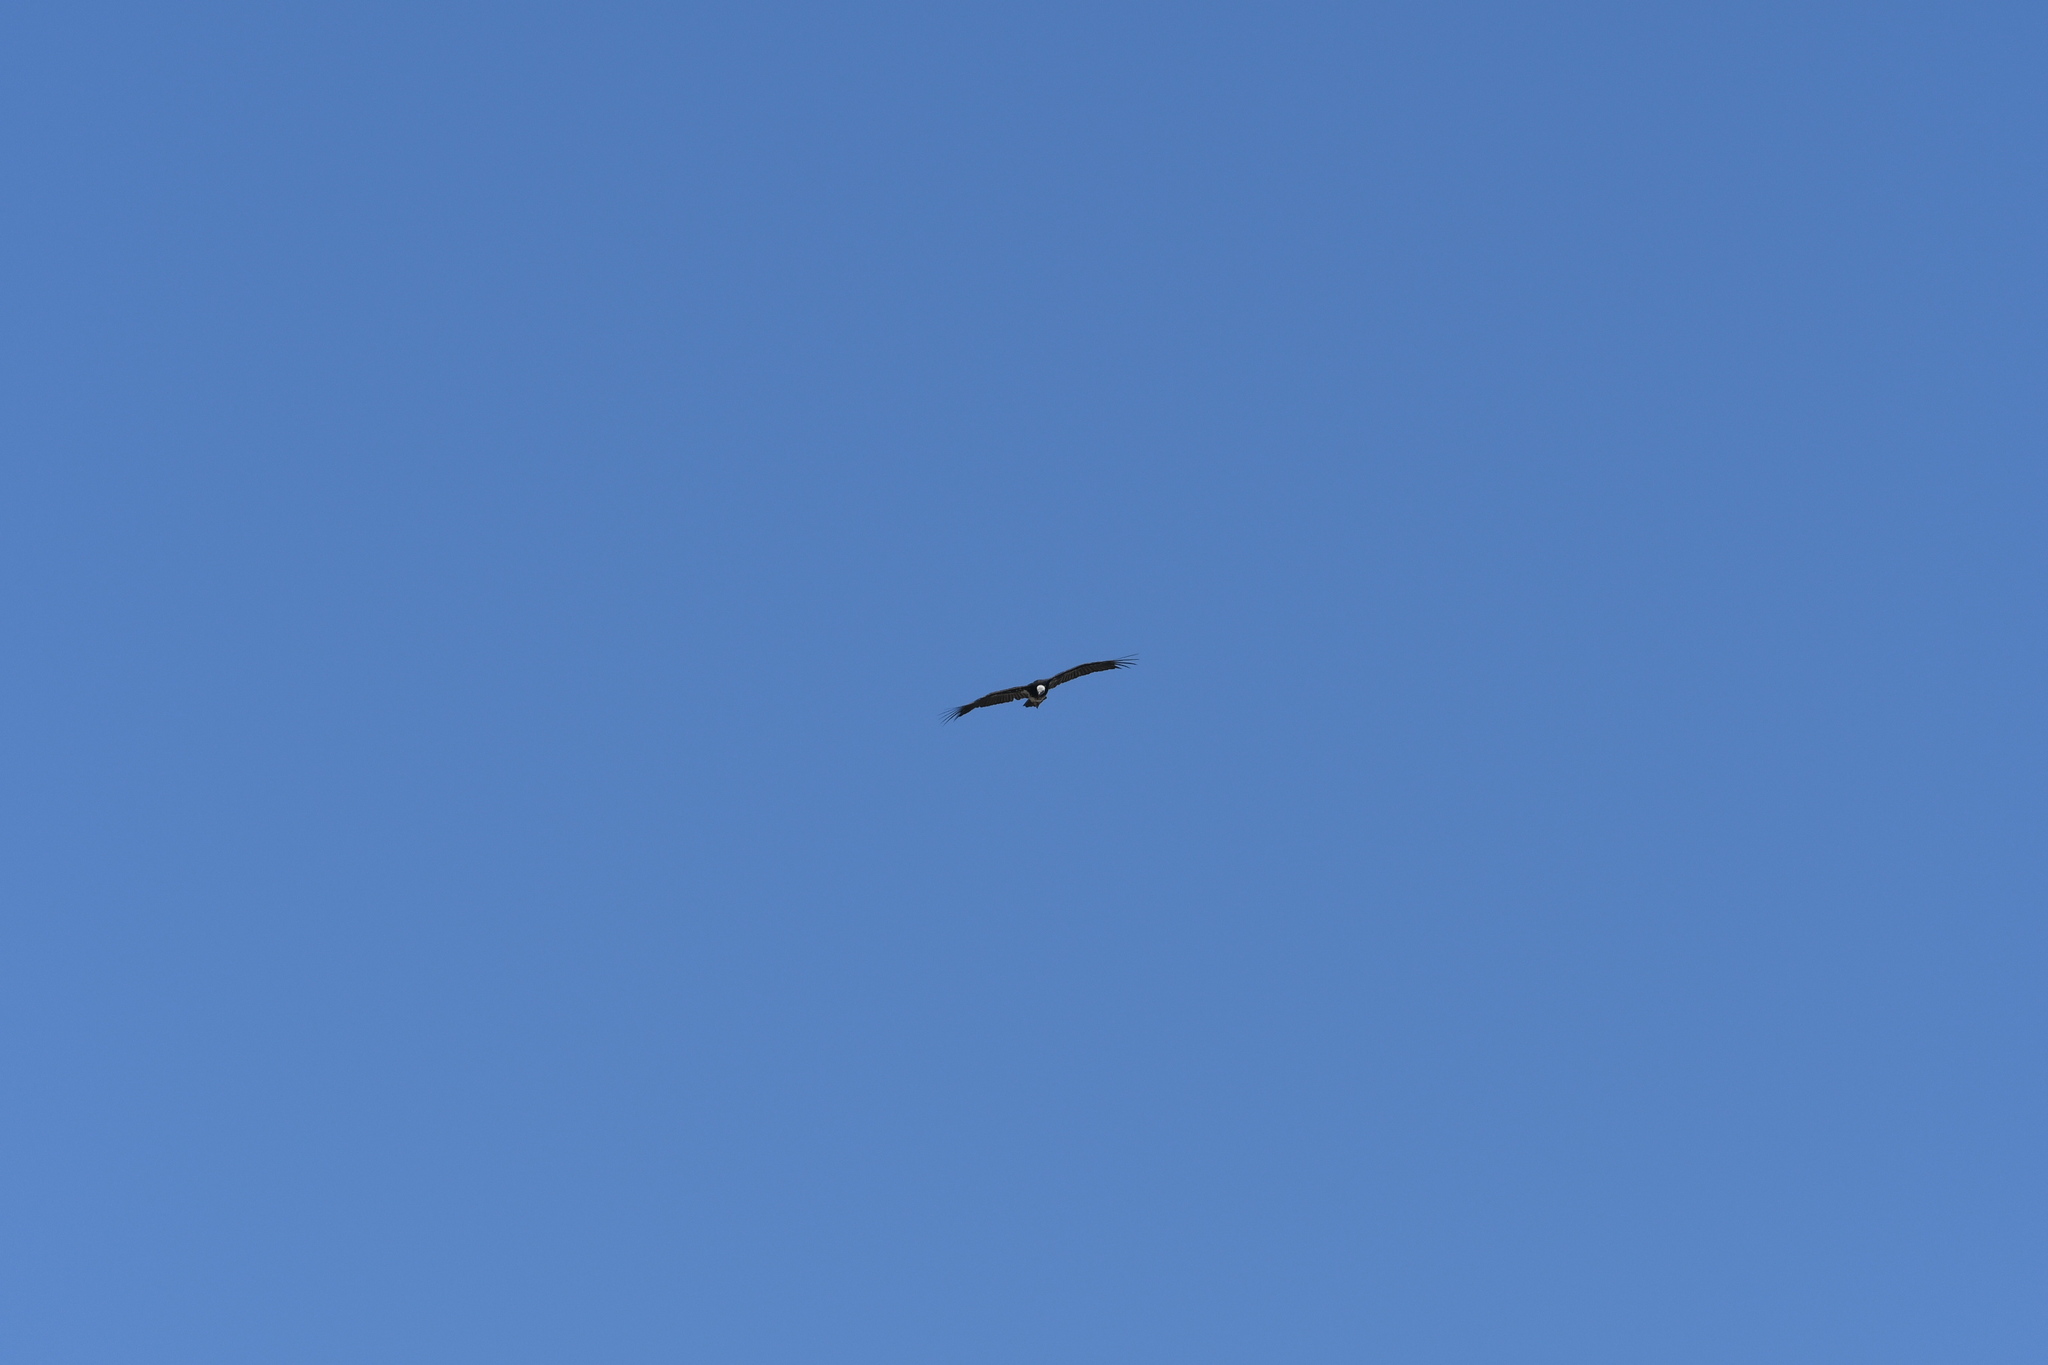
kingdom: Animalia
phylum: Chordata
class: Aves
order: Accipitriformes
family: Accipitridae
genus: Trigonoceps
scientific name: Trigonoceps occipitalis
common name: White-headed vulture
